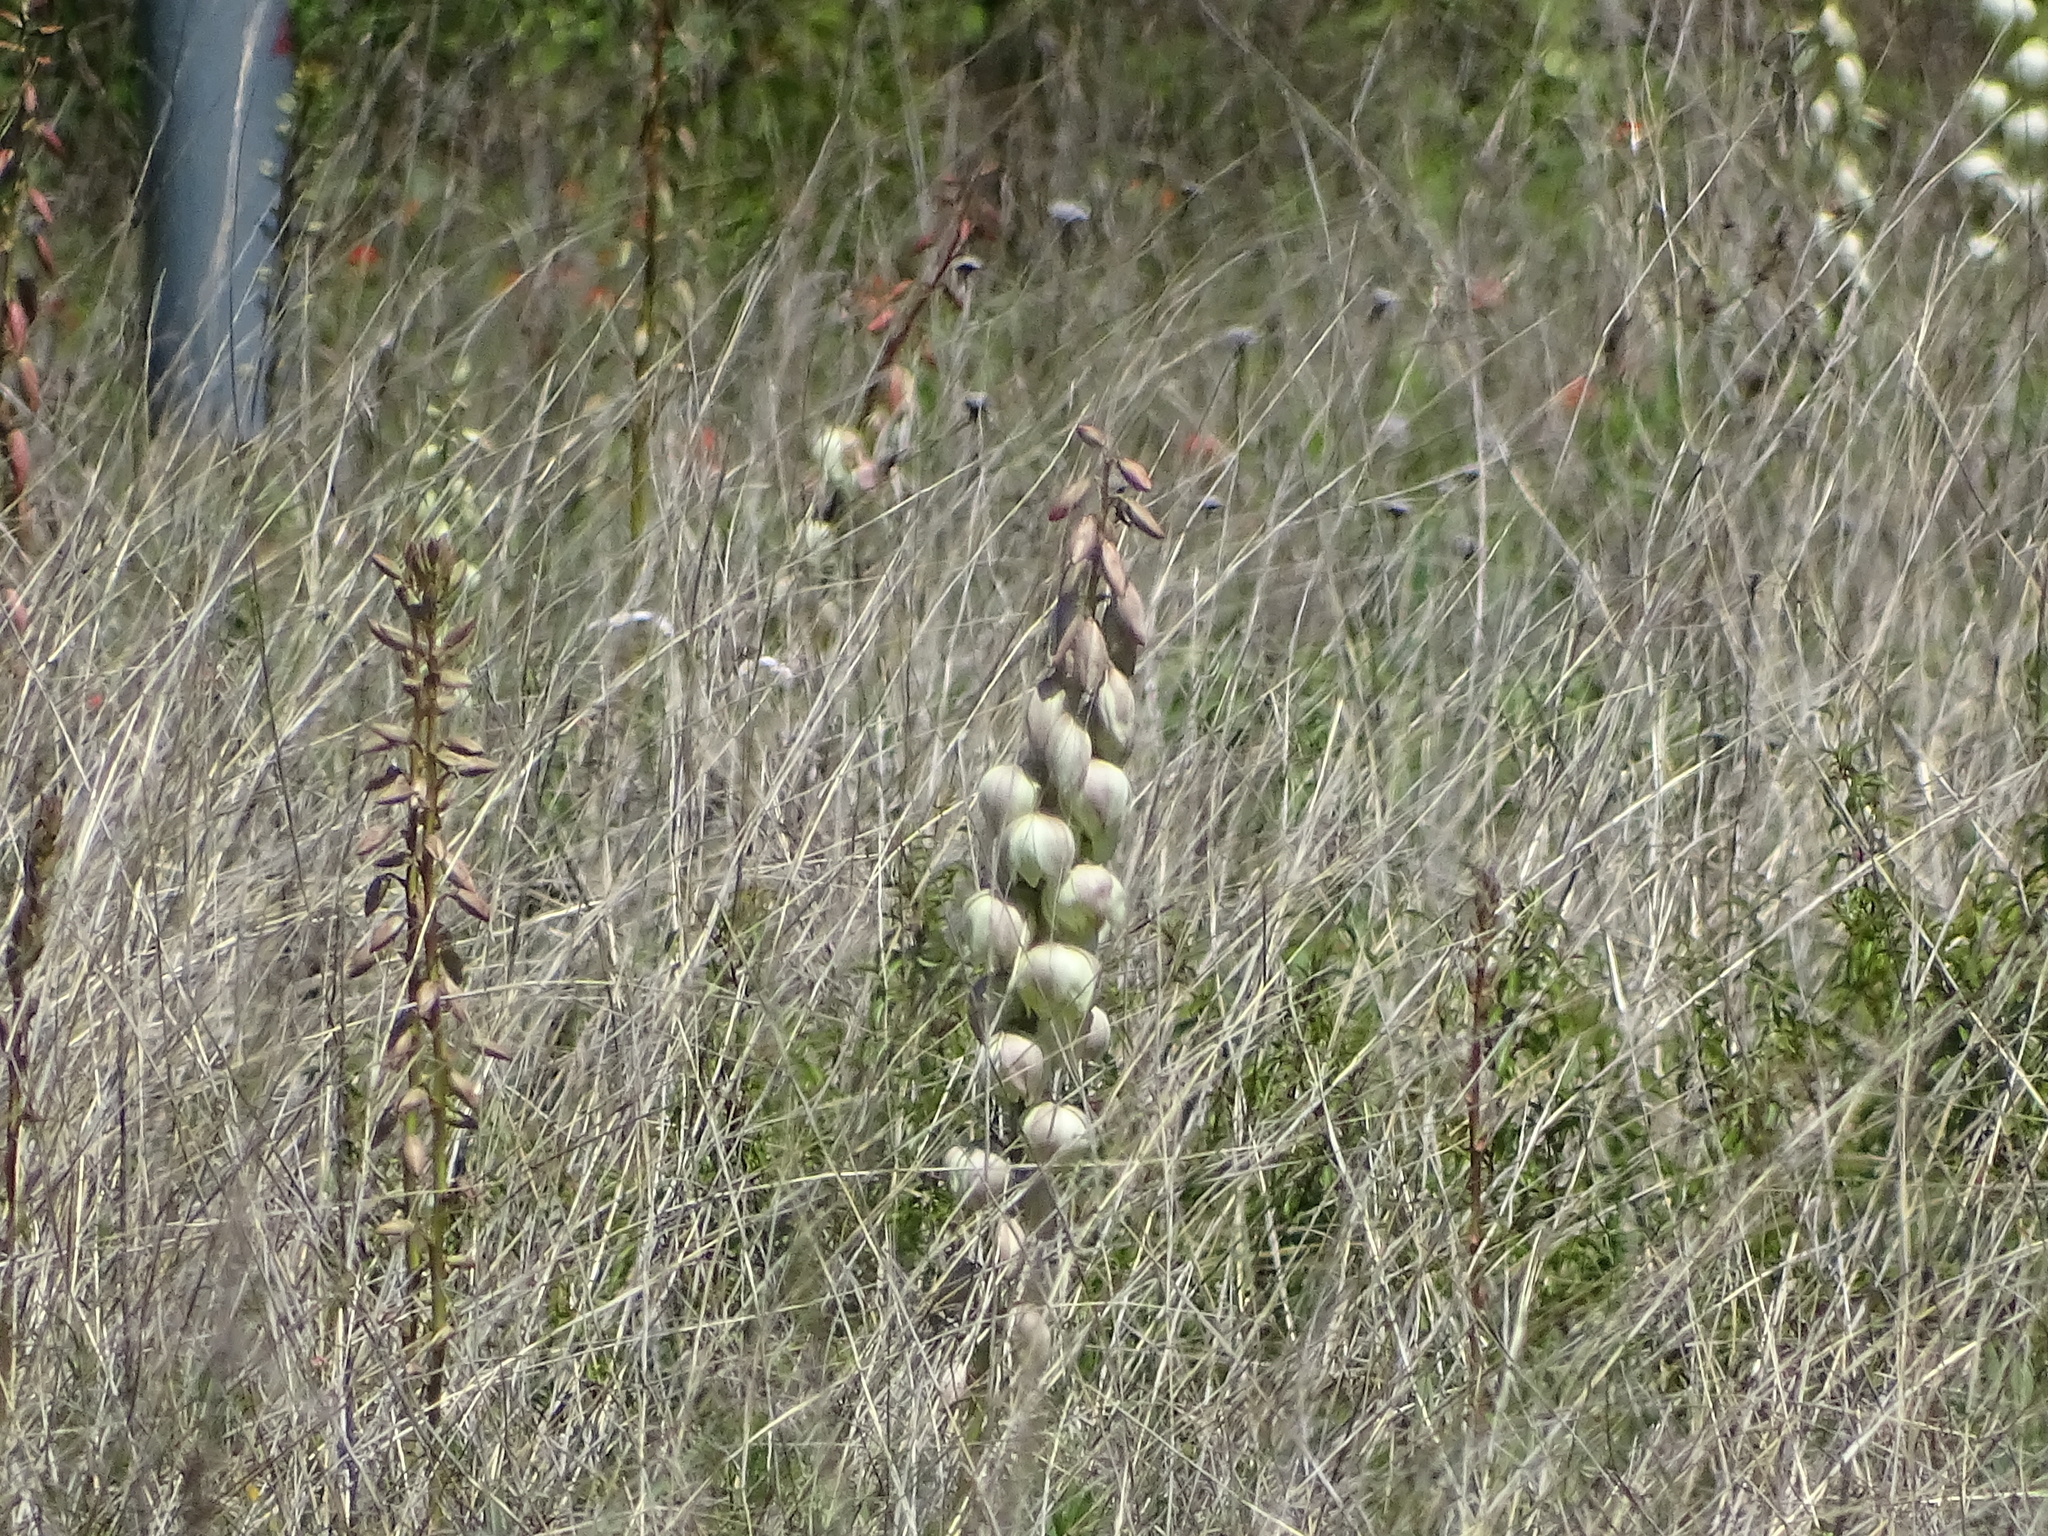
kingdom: Plantae
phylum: Tracheophyta
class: Liliopsida
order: Asparagales
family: Asparagaceae
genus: Yucca
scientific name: Yucca arkansana
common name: Arkansas yucca
